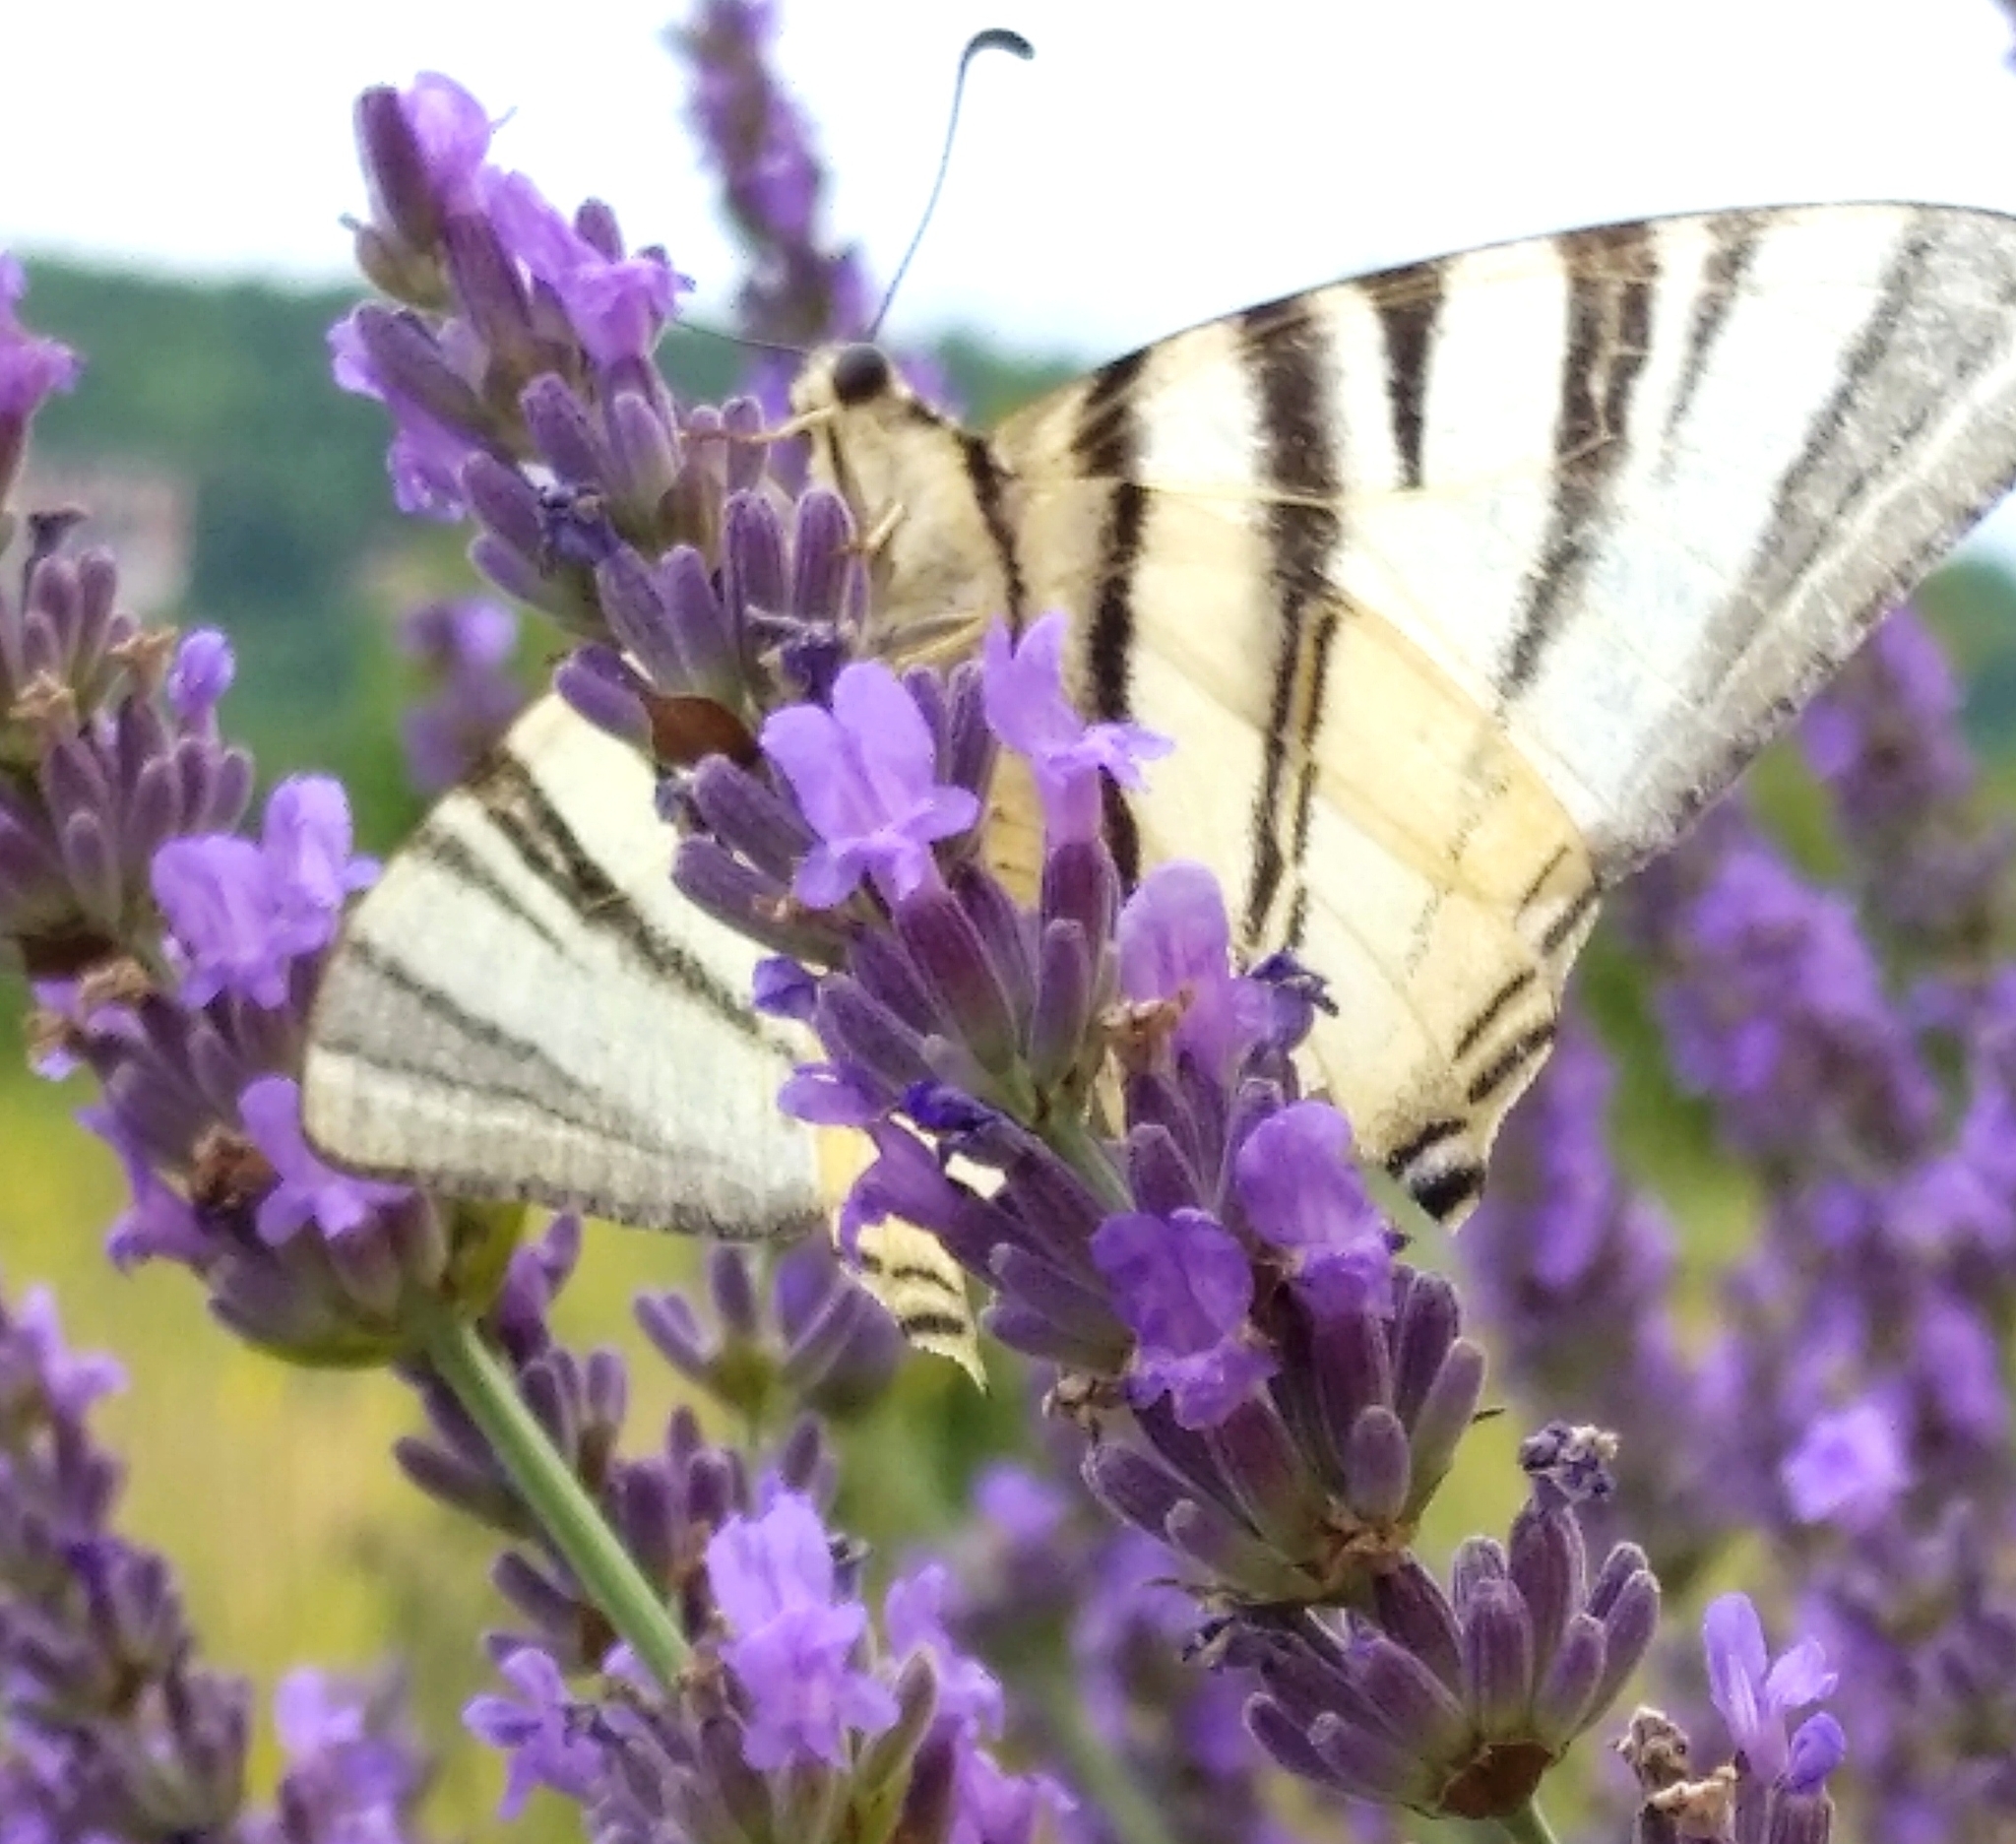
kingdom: Animalia
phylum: Arthropoda
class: Insecta
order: Lepidoptera
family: Papilionidae
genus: Iphiclides
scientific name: Iphiclides podalirius
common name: Scarce swallowtail
